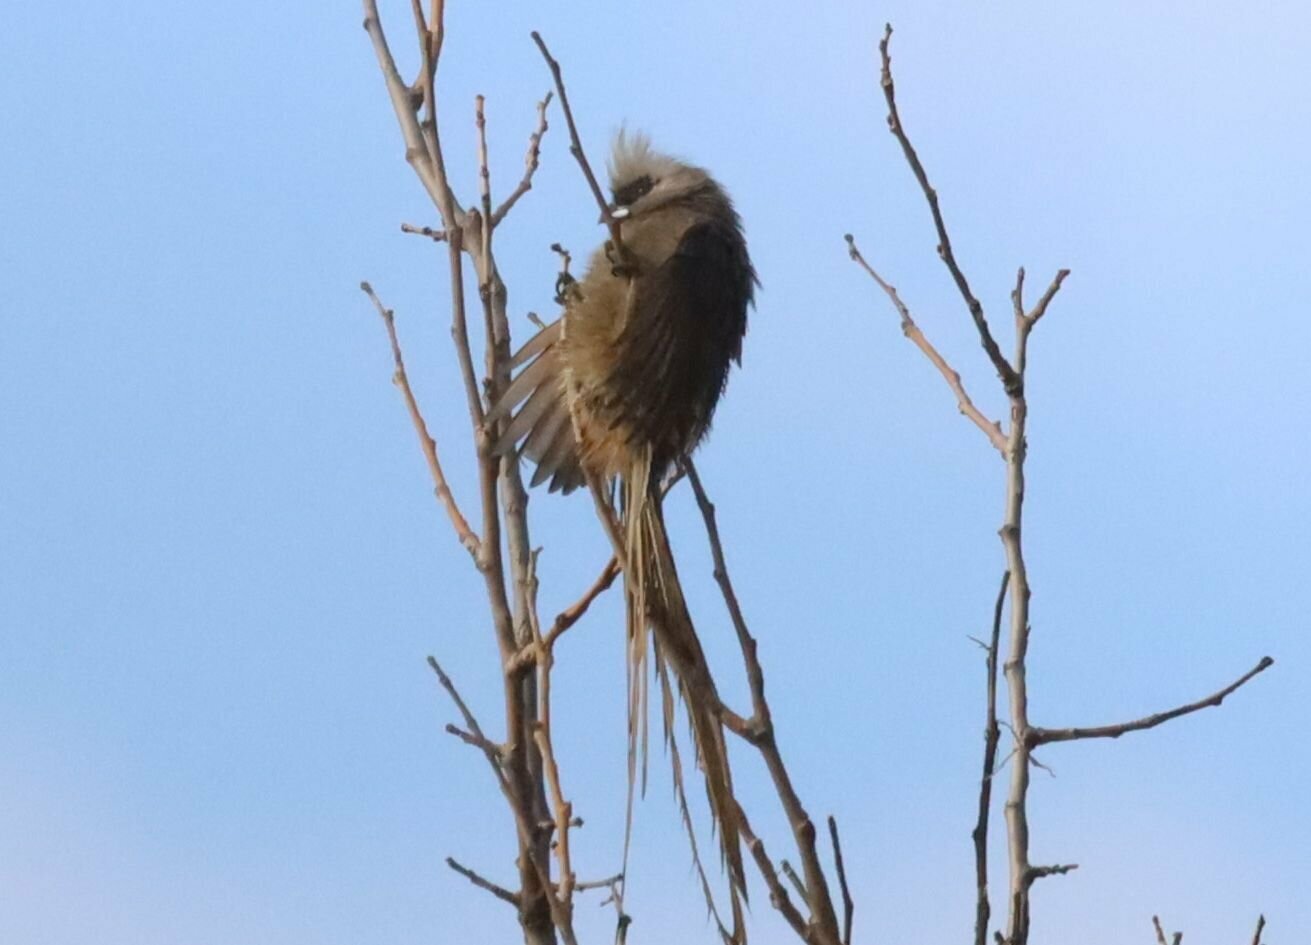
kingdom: Animalia
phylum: Chordata
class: Aves
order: Coliiformes
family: Coliidae
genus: Colius
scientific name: Colius striatus
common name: Speckled mousebird
